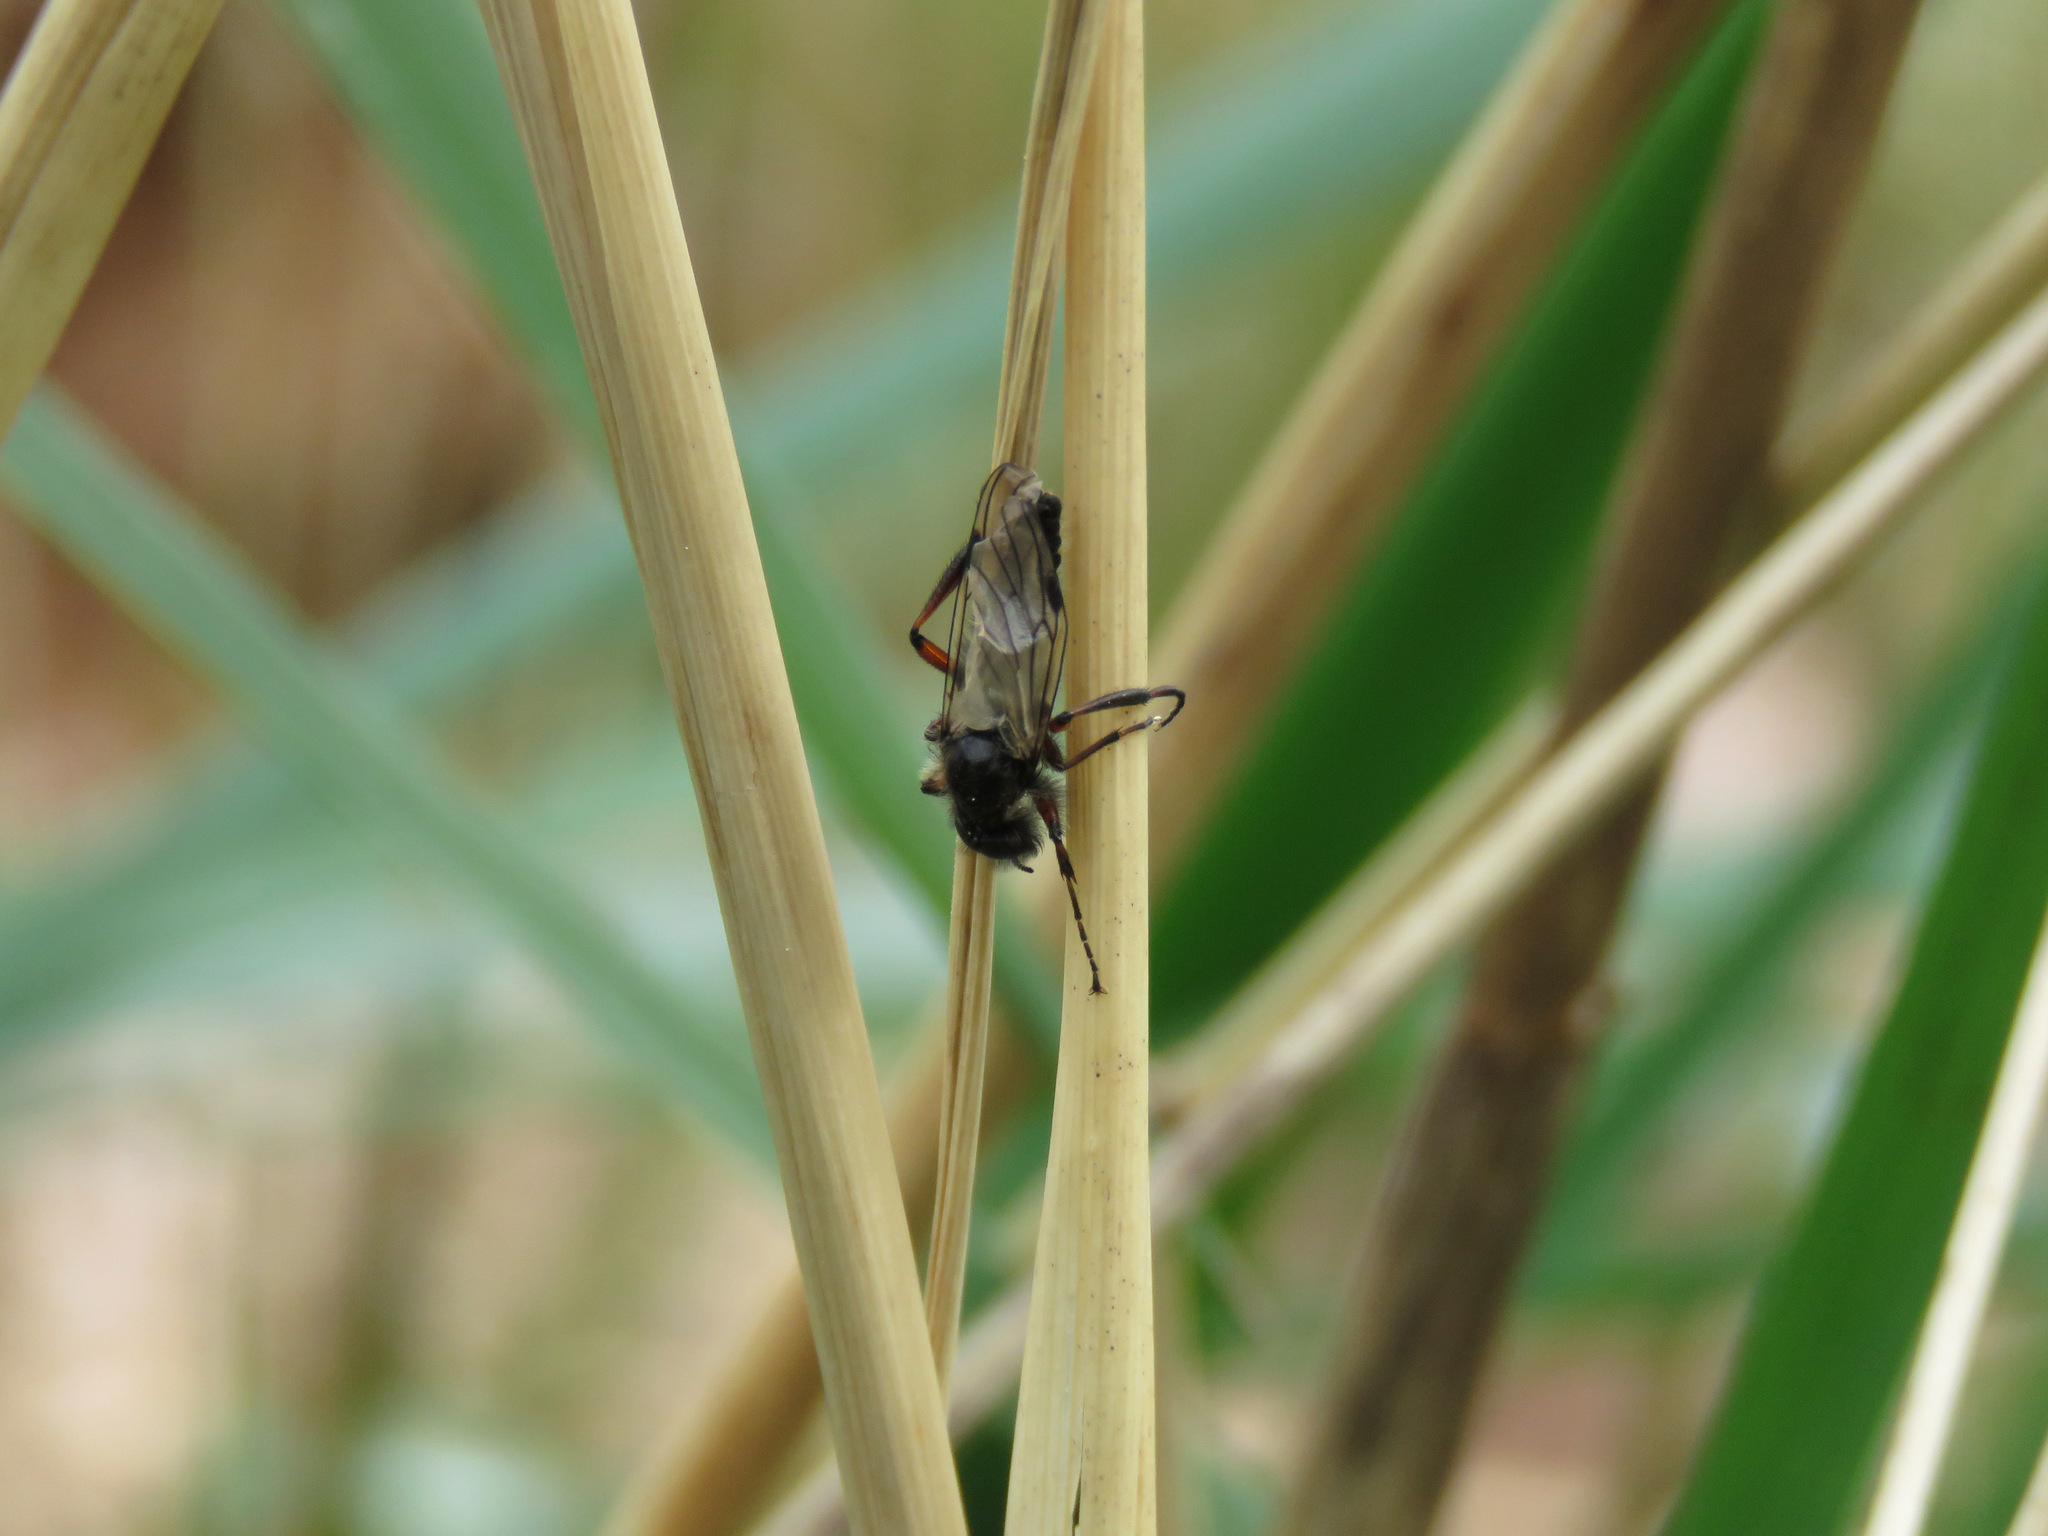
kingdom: Animalia
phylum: Arthropoda
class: Insecta
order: Diptera
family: Bibionidae
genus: Bibio
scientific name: Bibio
